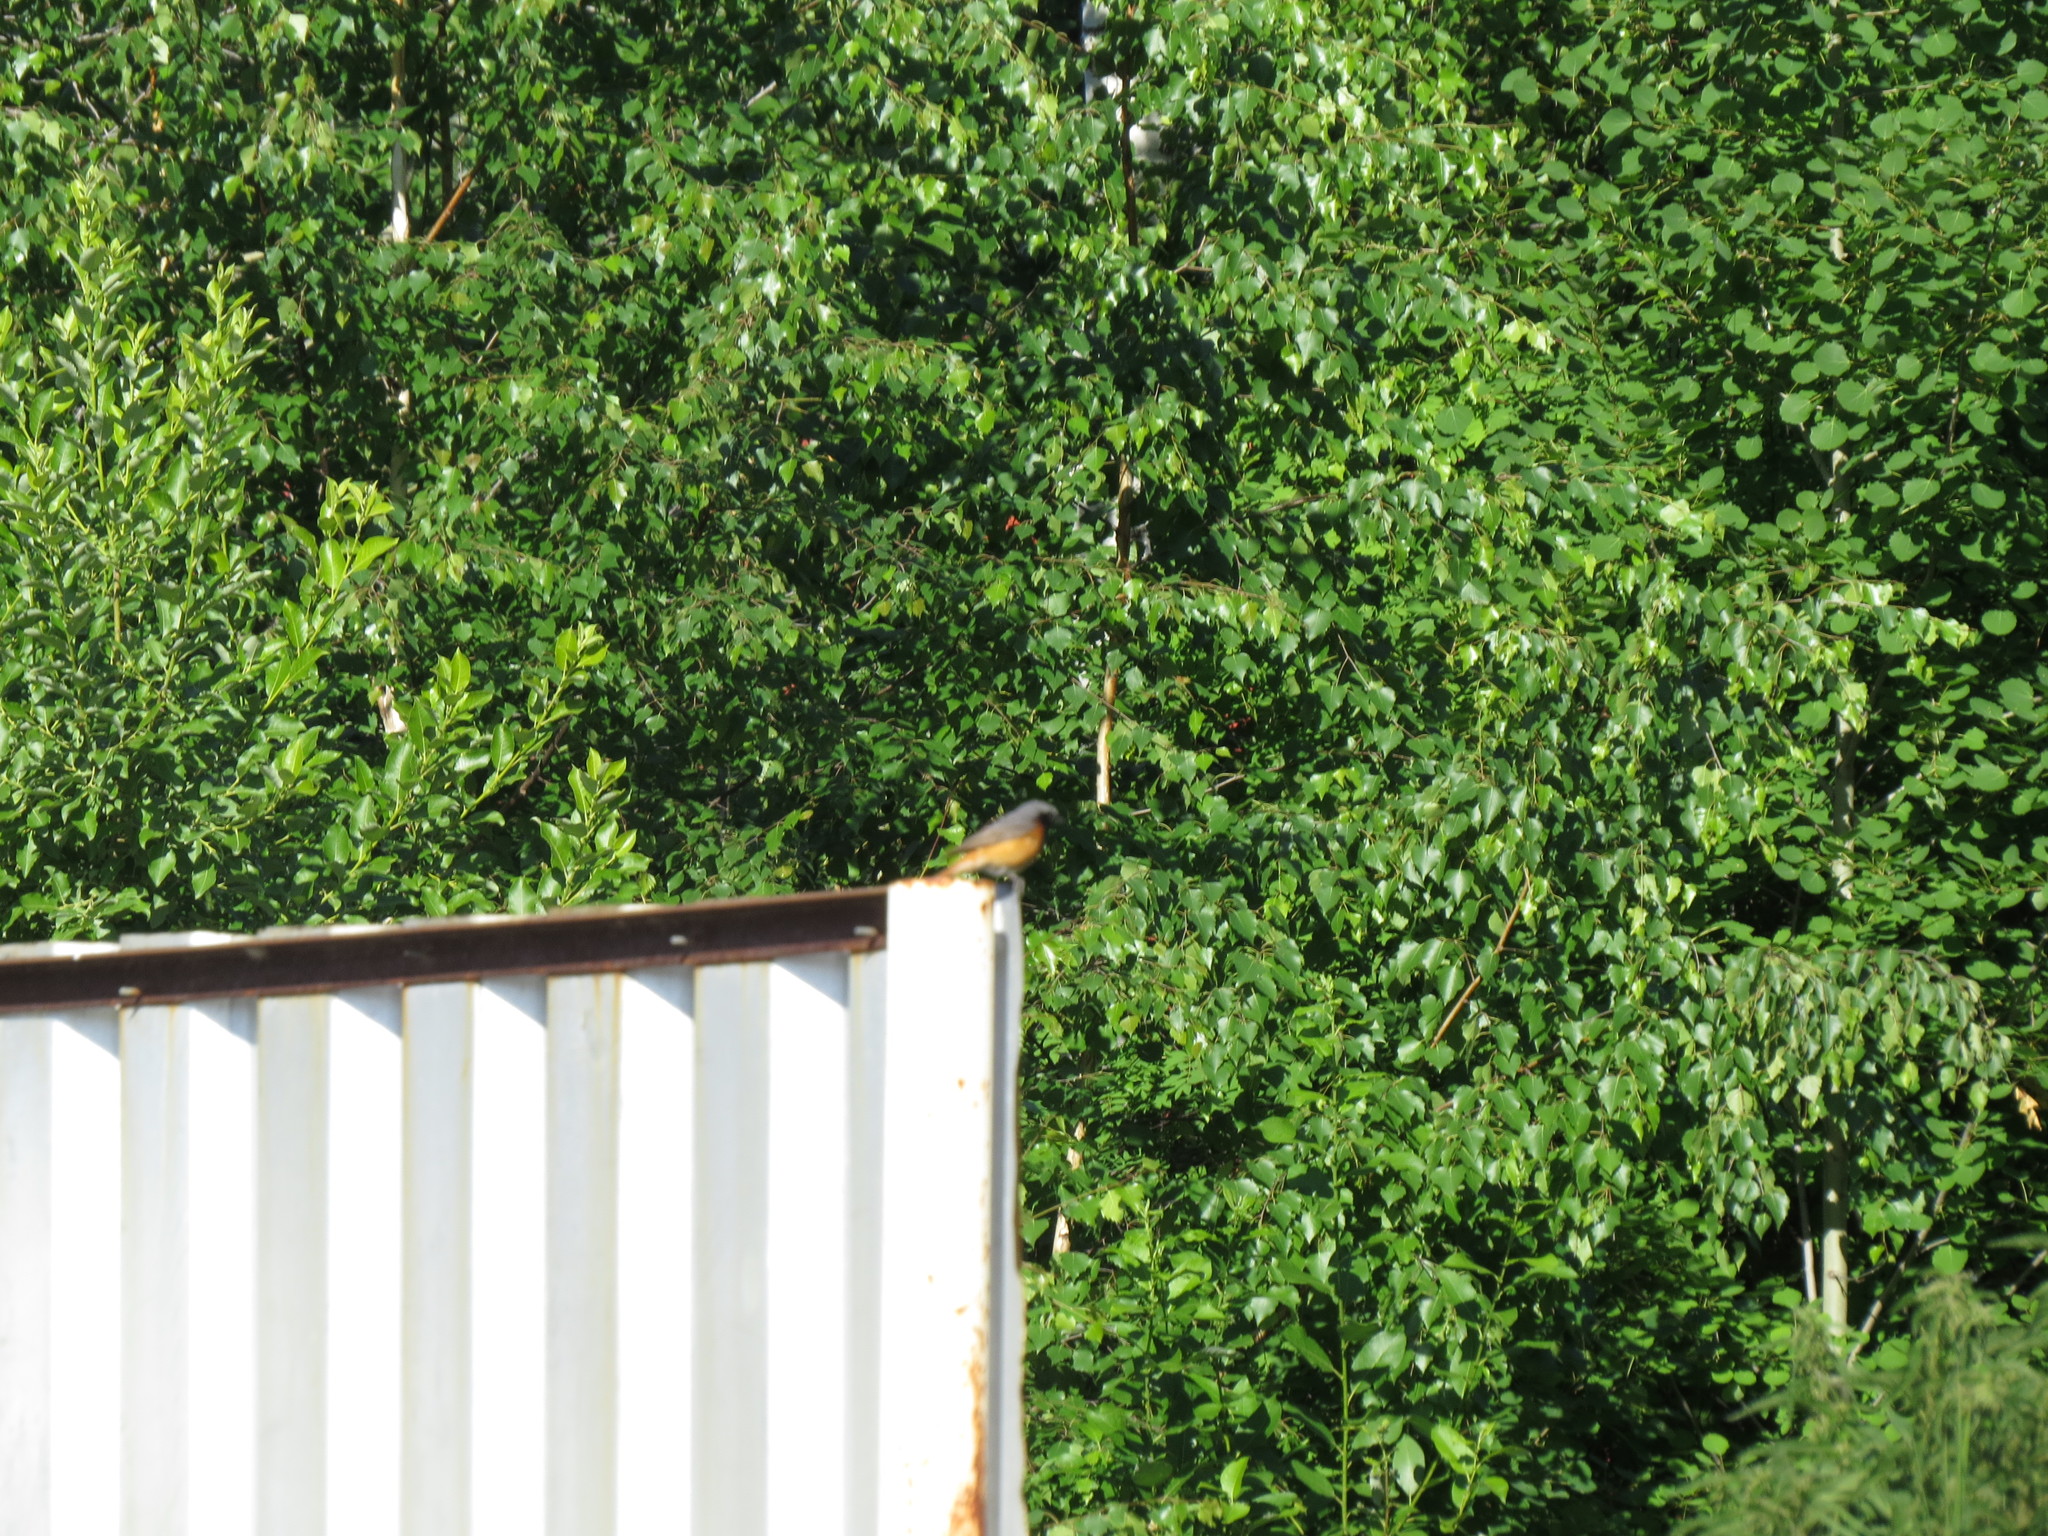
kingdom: Animalia
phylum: Chordata
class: Aves
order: Passeriformes
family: Muscicapidae
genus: Phoenicurus
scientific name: Phoenicurus phoenicurus
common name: Common redstart
